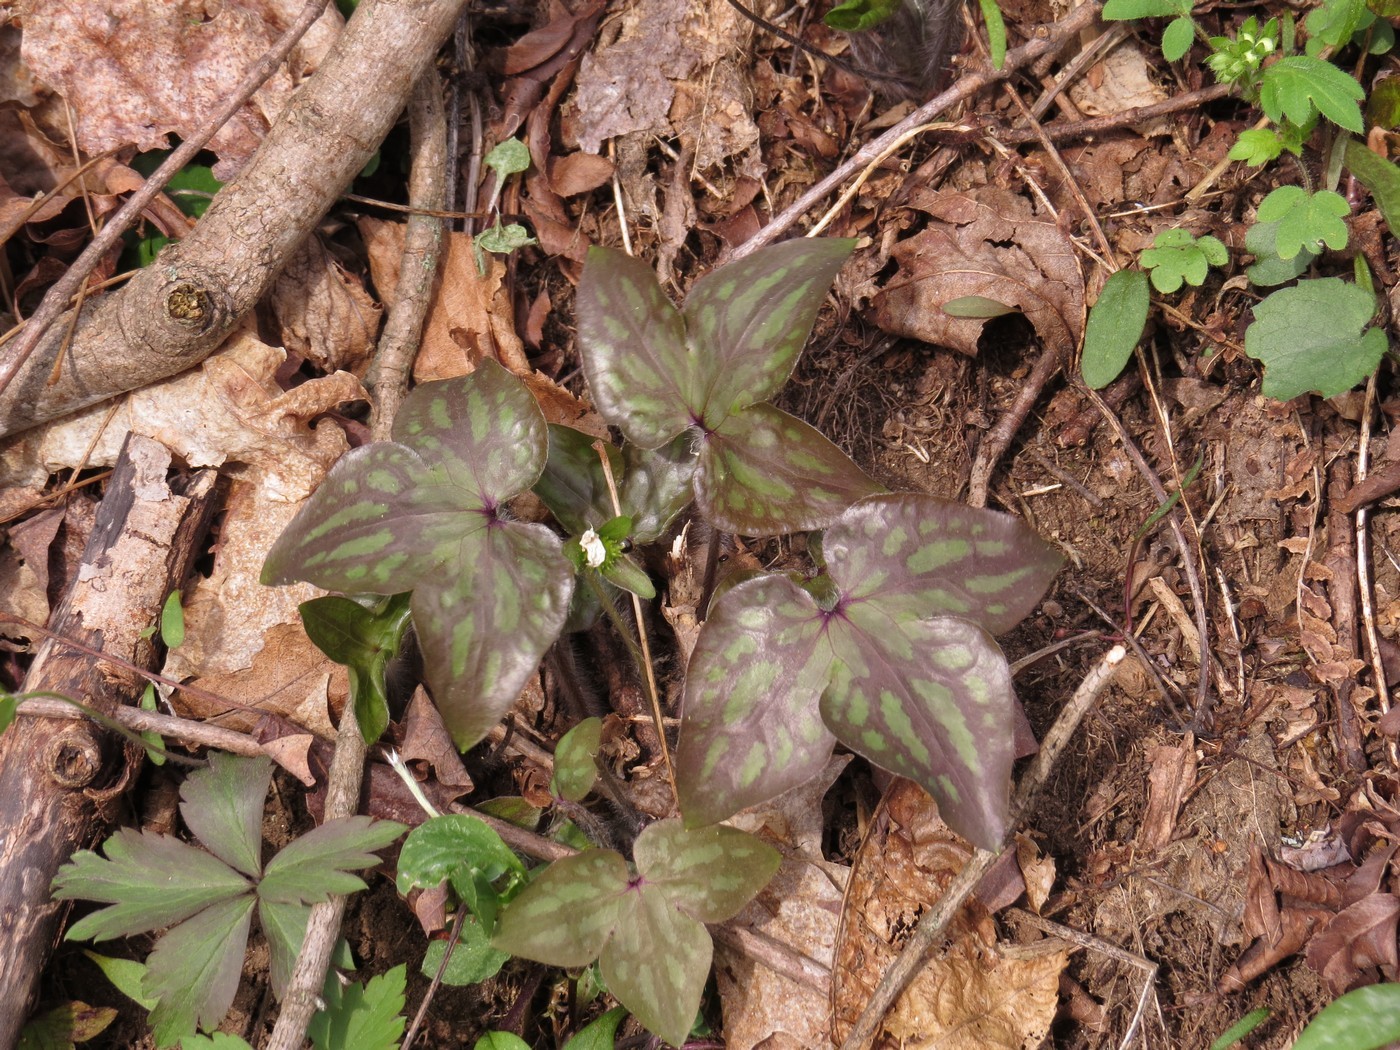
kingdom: Plantae
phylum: Tracheophyta
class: Magnoliopsida
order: Ranunculales
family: Ranunculaceae
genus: Hepatica
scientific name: Hepatica acutiloba
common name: Sharp-lobed hepatica
